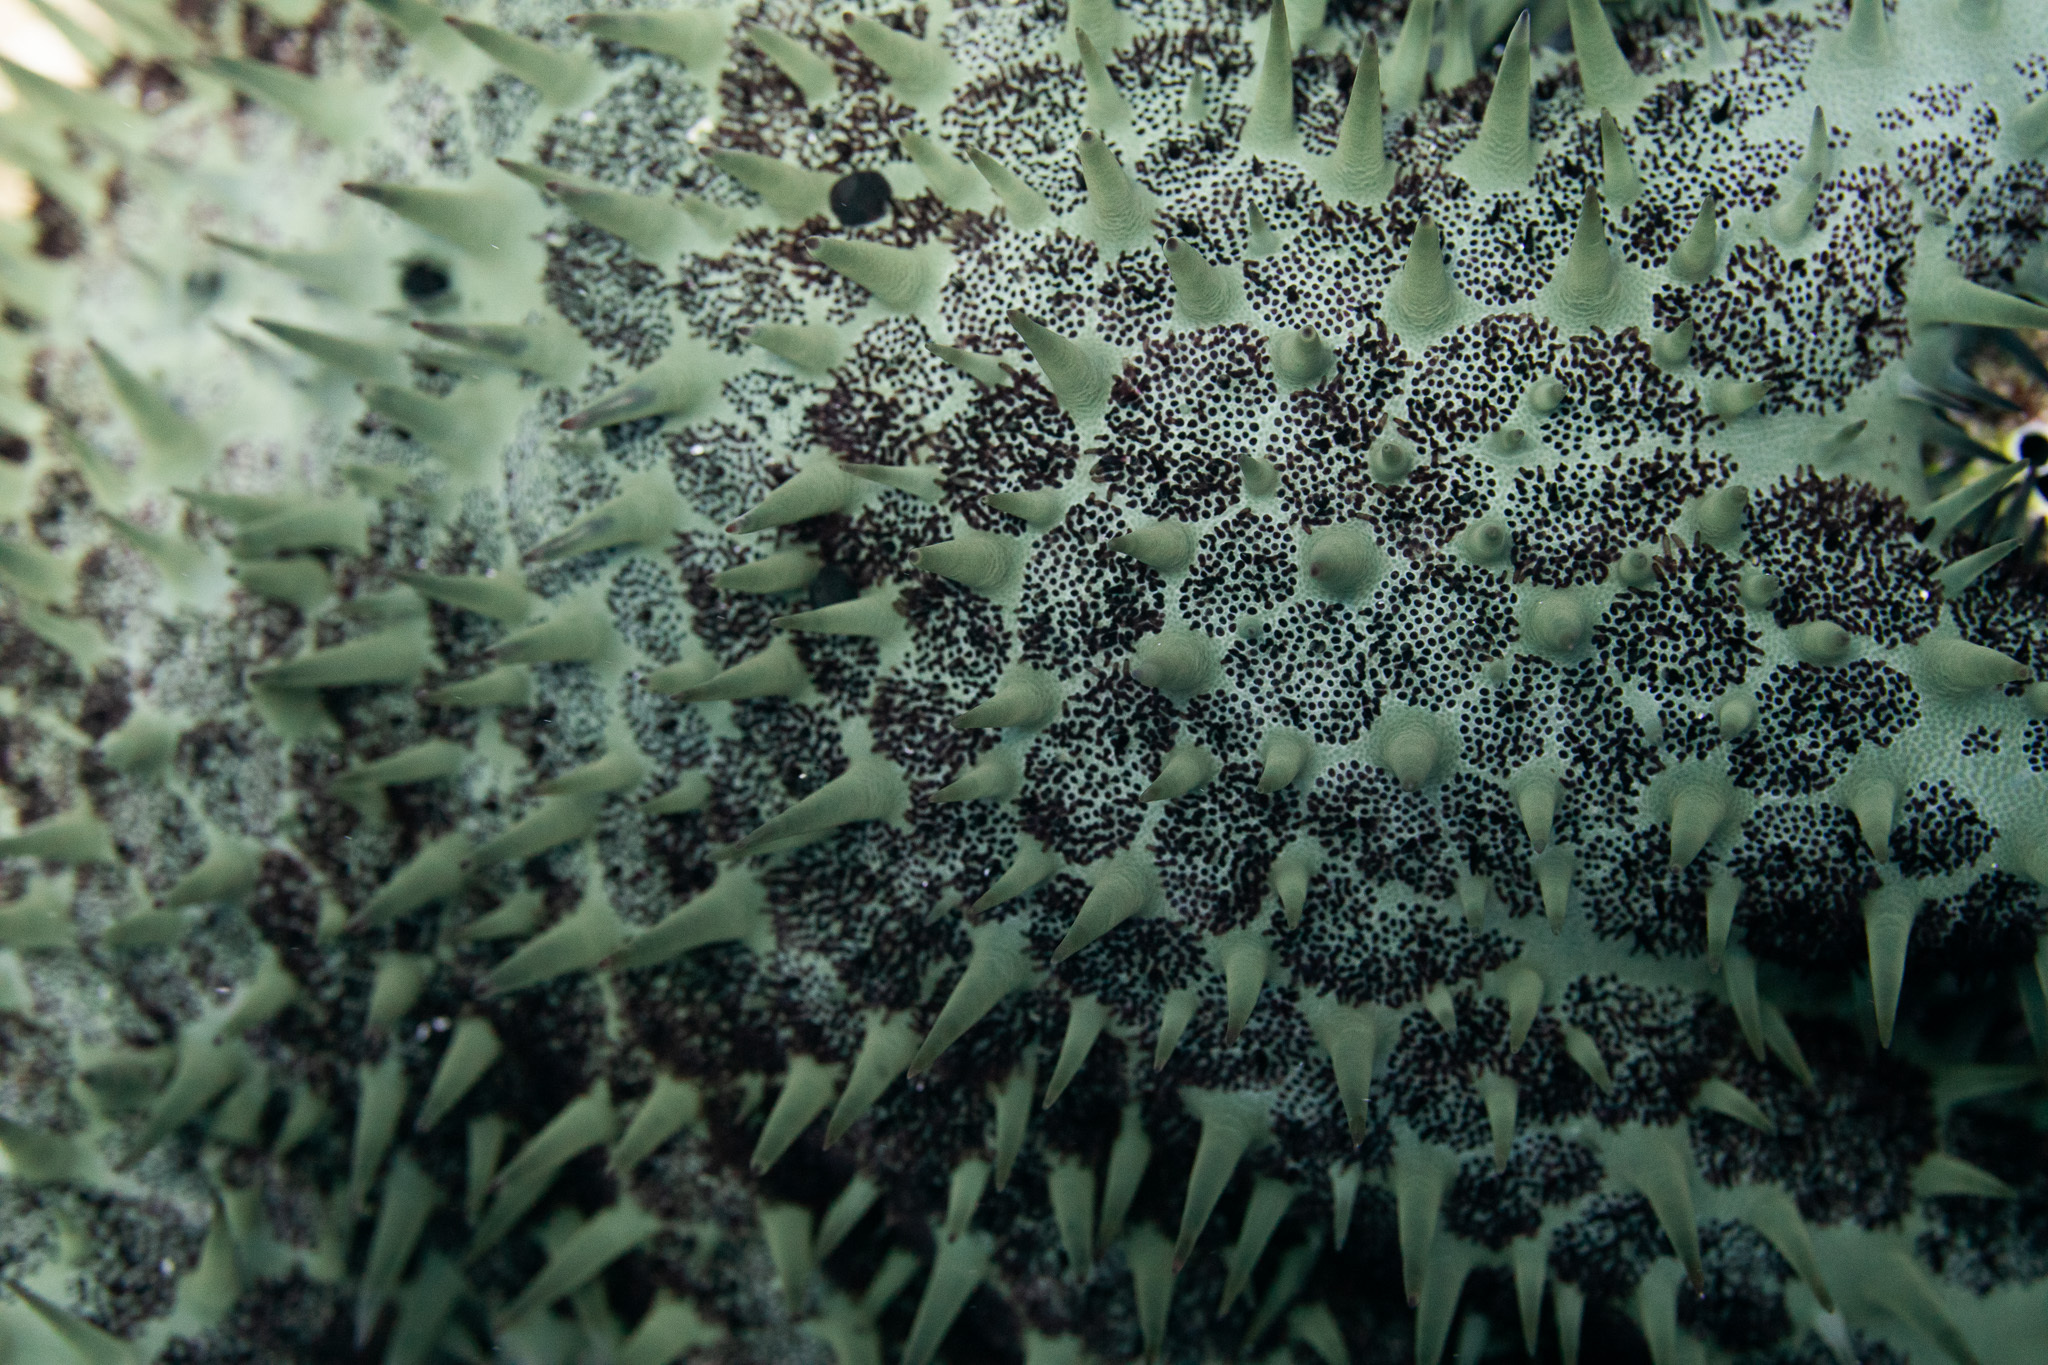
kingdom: Animalia
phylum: Echinodermata
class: Asteroidea
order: Valvatida
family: Acanthasteridae
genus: Acanthaster
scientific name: Acanthaster planci
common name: Crown-of-thorns
